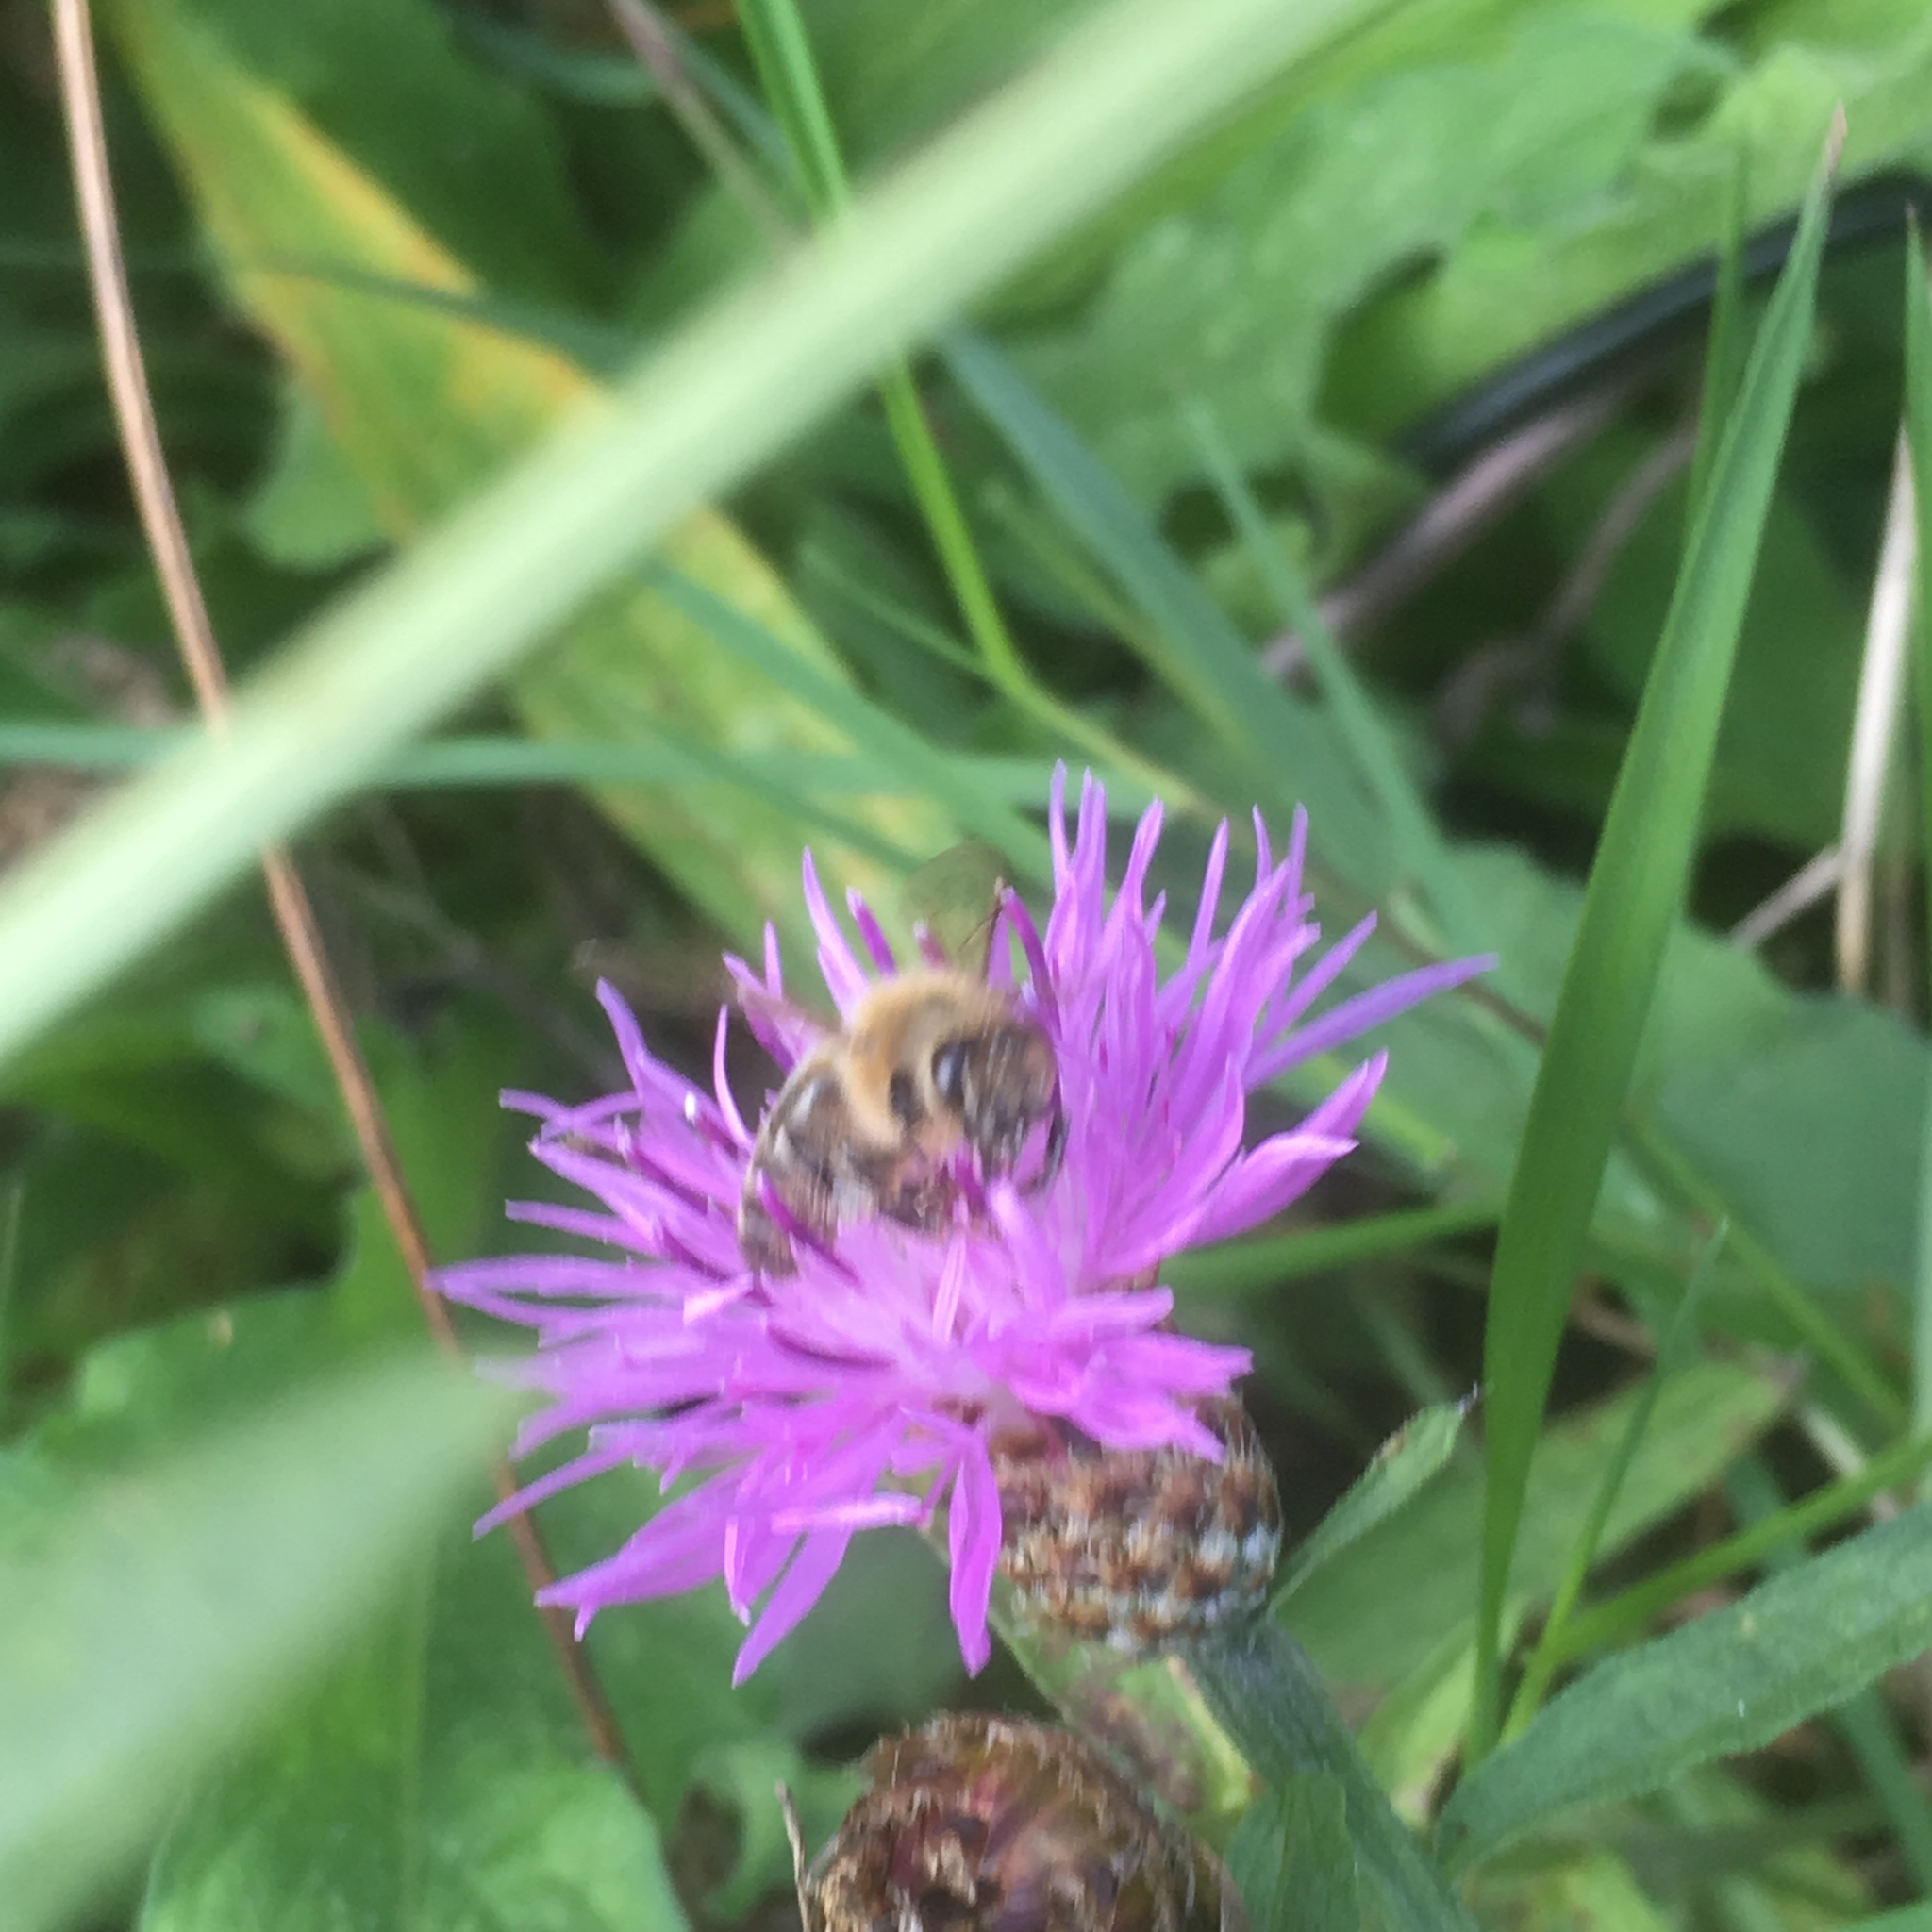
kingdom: Animalia
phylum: Arthropoda
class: Insecta
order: Hymenoptera
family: Apidae
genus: Apis
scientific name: Apis mellifera
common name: Honey bee
